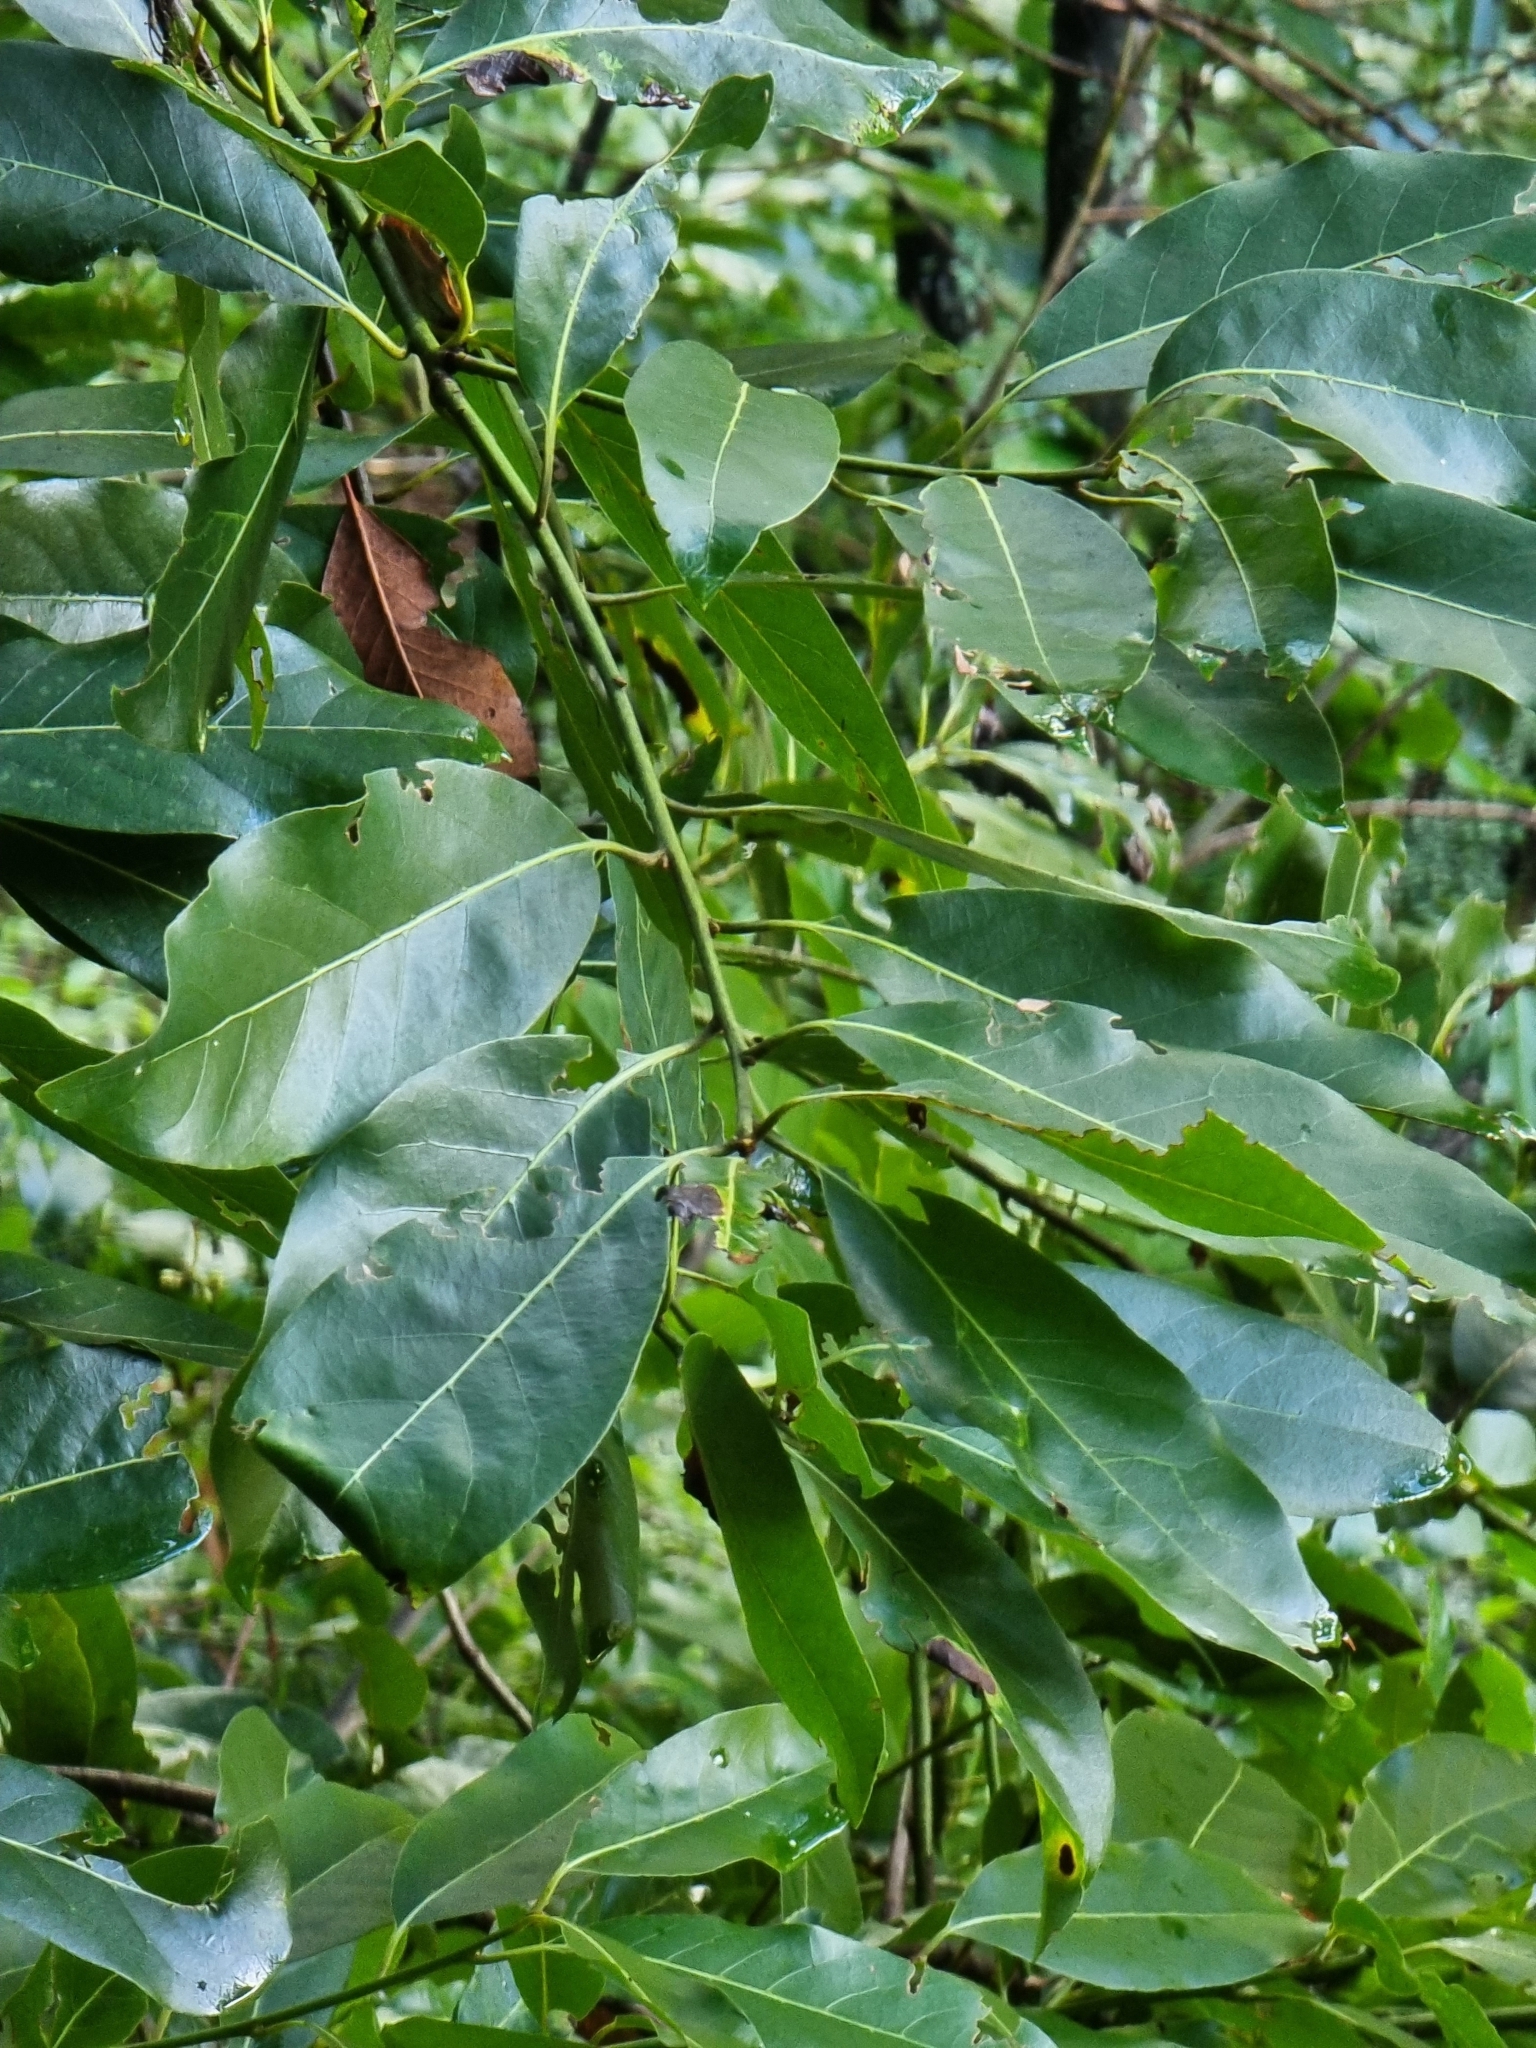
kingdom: Plantae
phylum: Tracheophyta
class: Magnoliopsida
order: Laurales
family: Lauraceae
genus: Laurus
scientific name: Laurus novocanariensis
